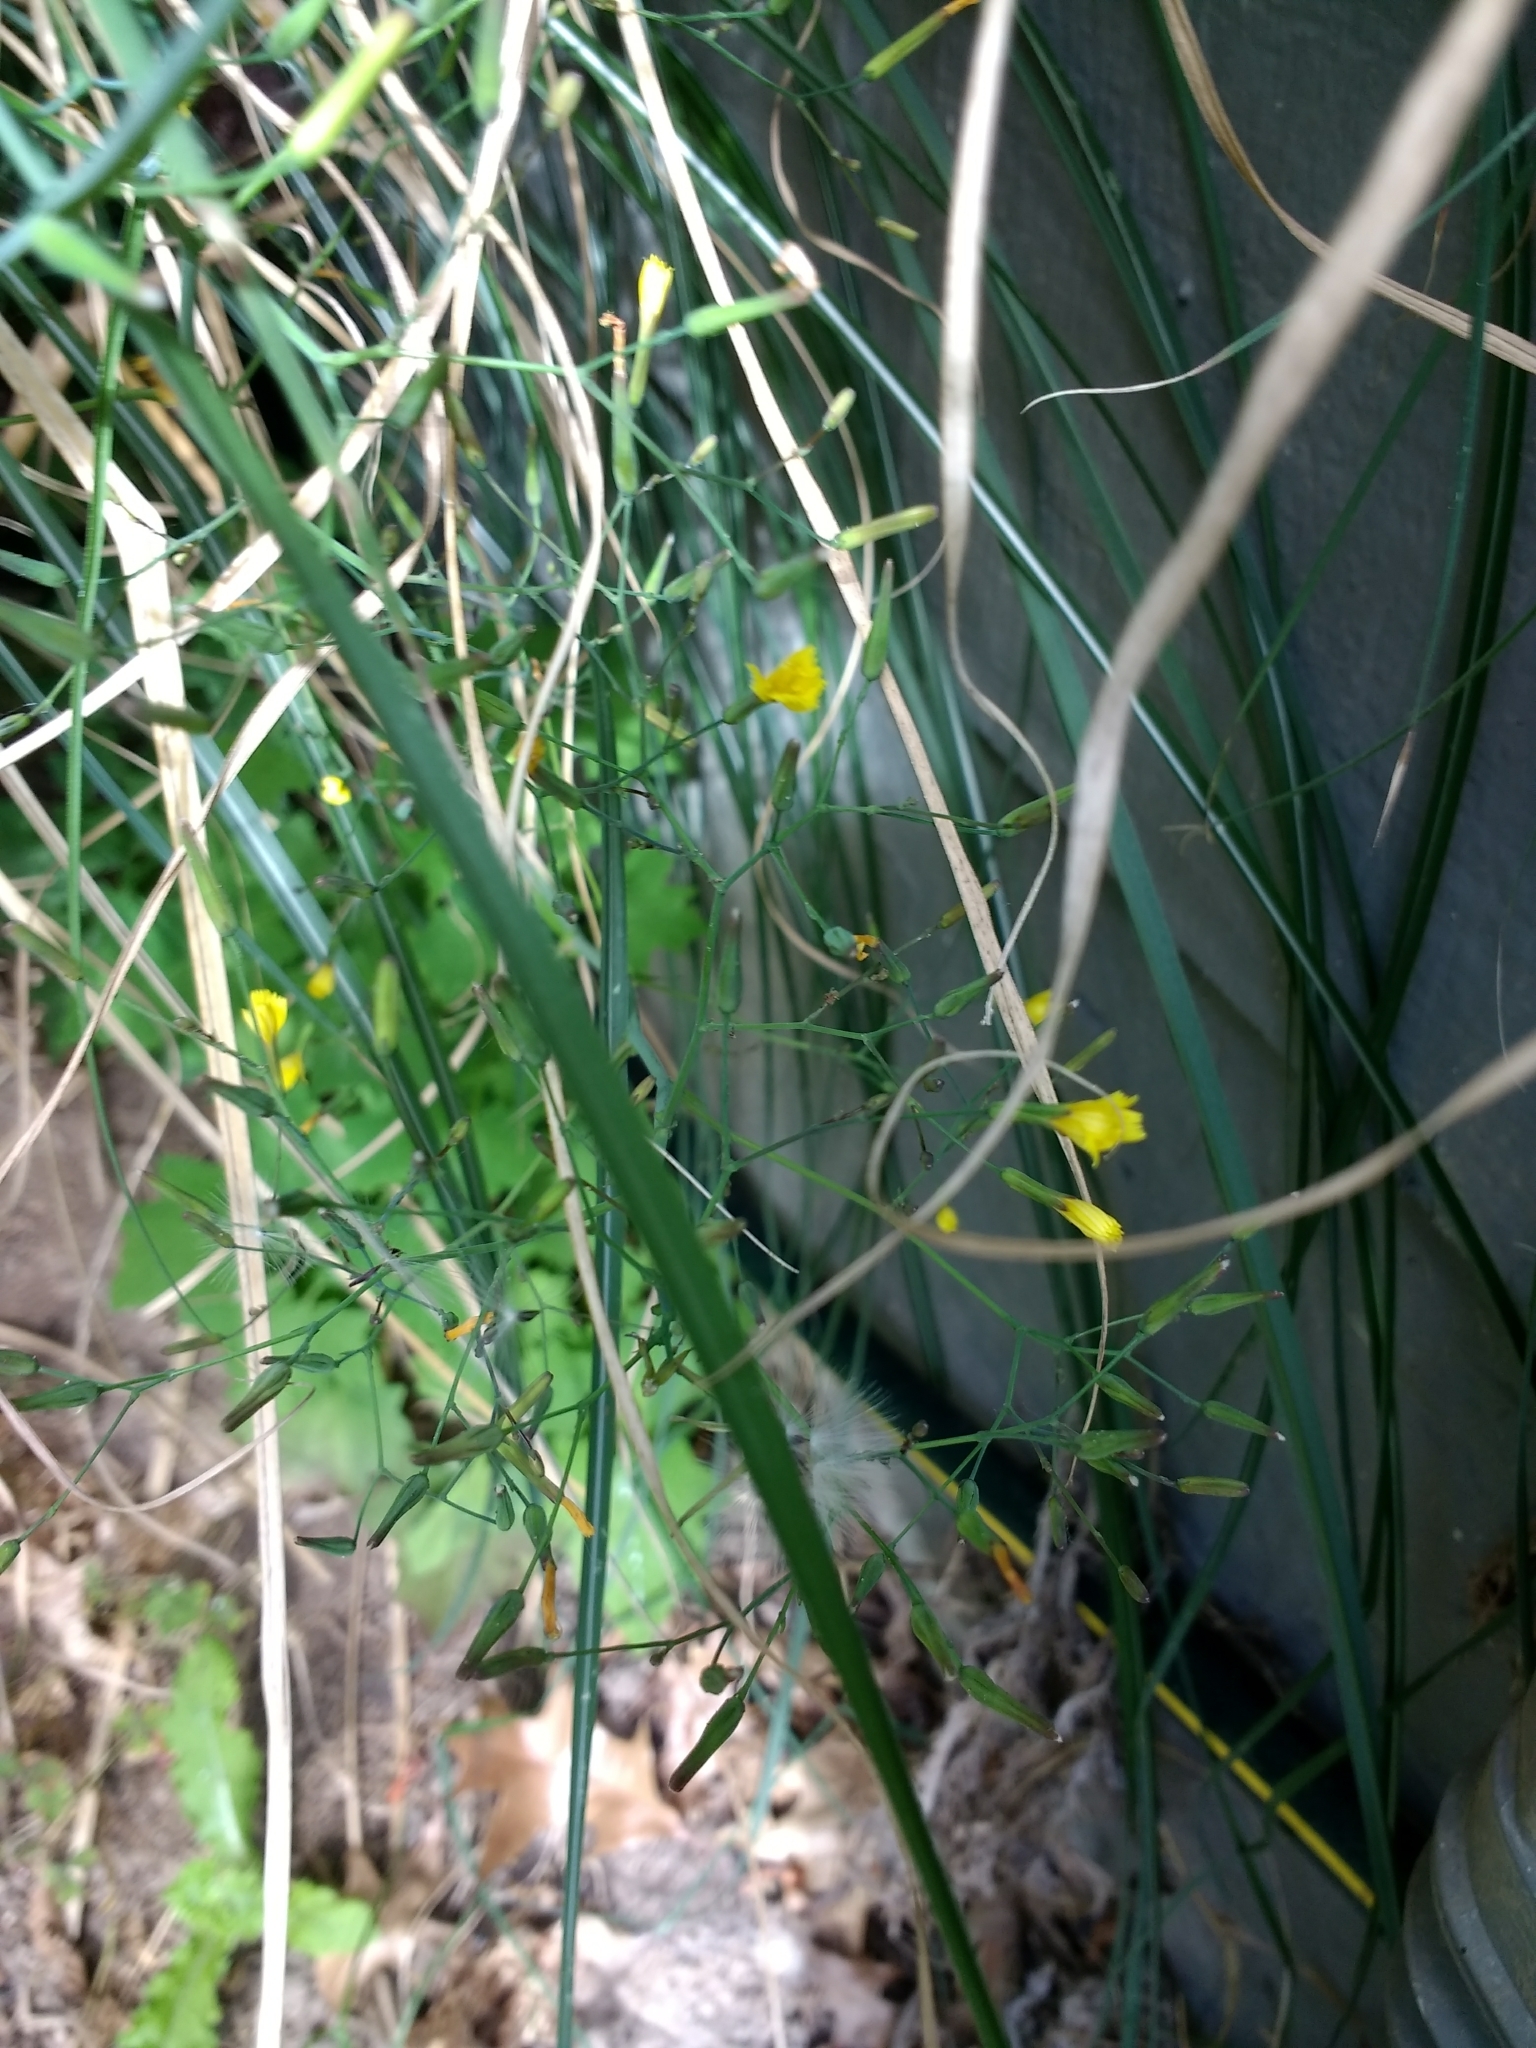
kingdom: Plantae
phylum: Tracheophyta
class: Magnoliopsida
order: Asterales
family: Asteraceae
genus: Mycelis
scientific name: Mycelis muralis
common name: Wall lettuce
